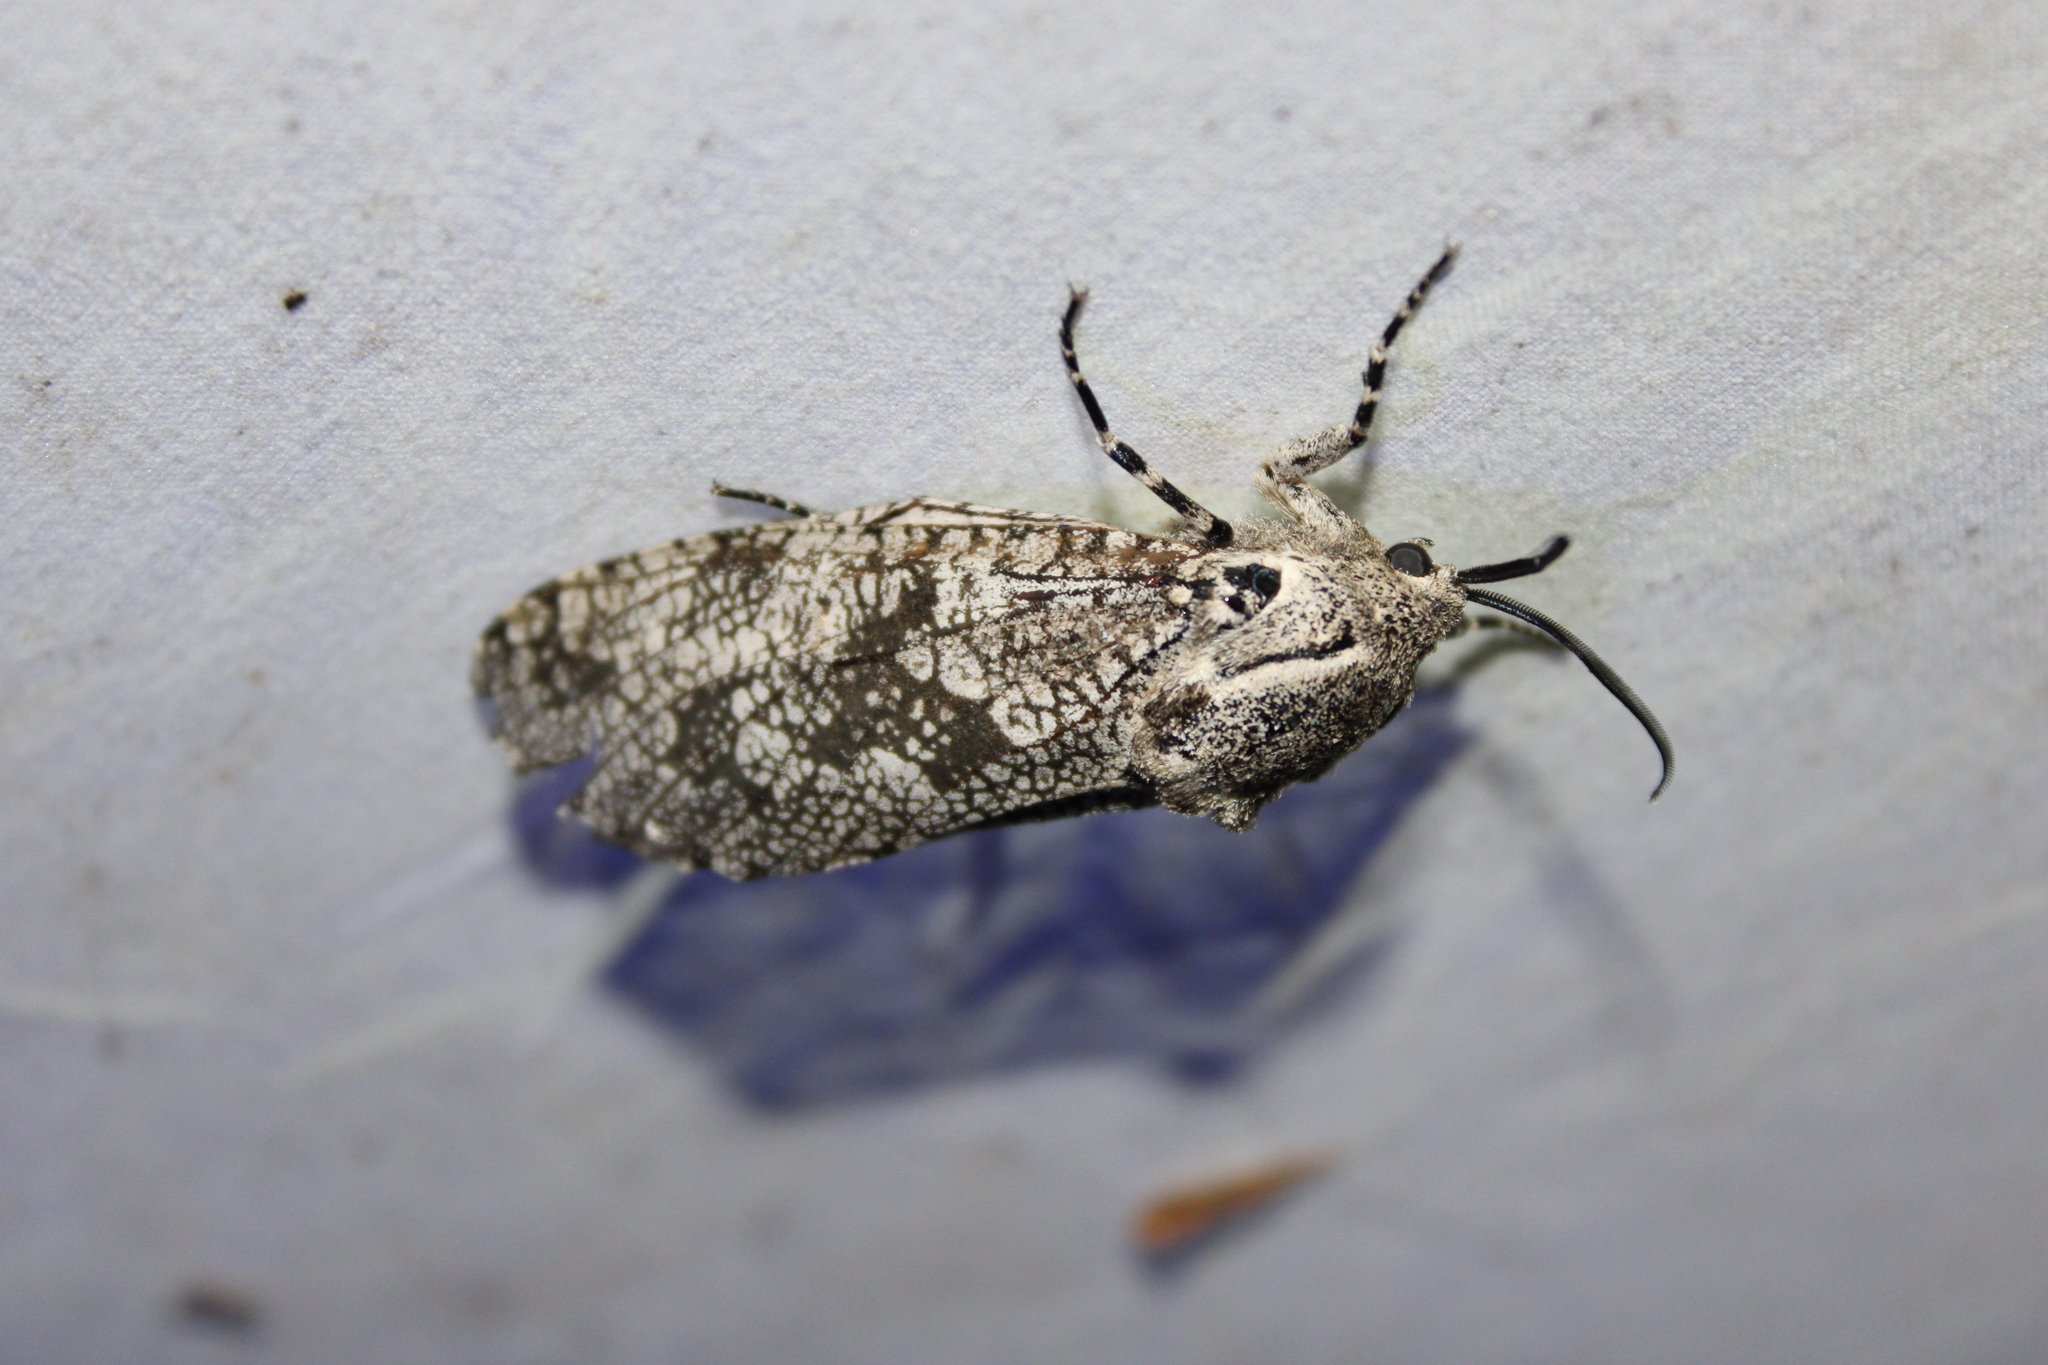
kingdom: Animalia
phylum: Arthropoda
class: Insecta
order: Lepidoptera
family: Cossidae
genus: Prionoxystus
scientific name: Prionoxystus robiniae
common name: Carpenterworm
